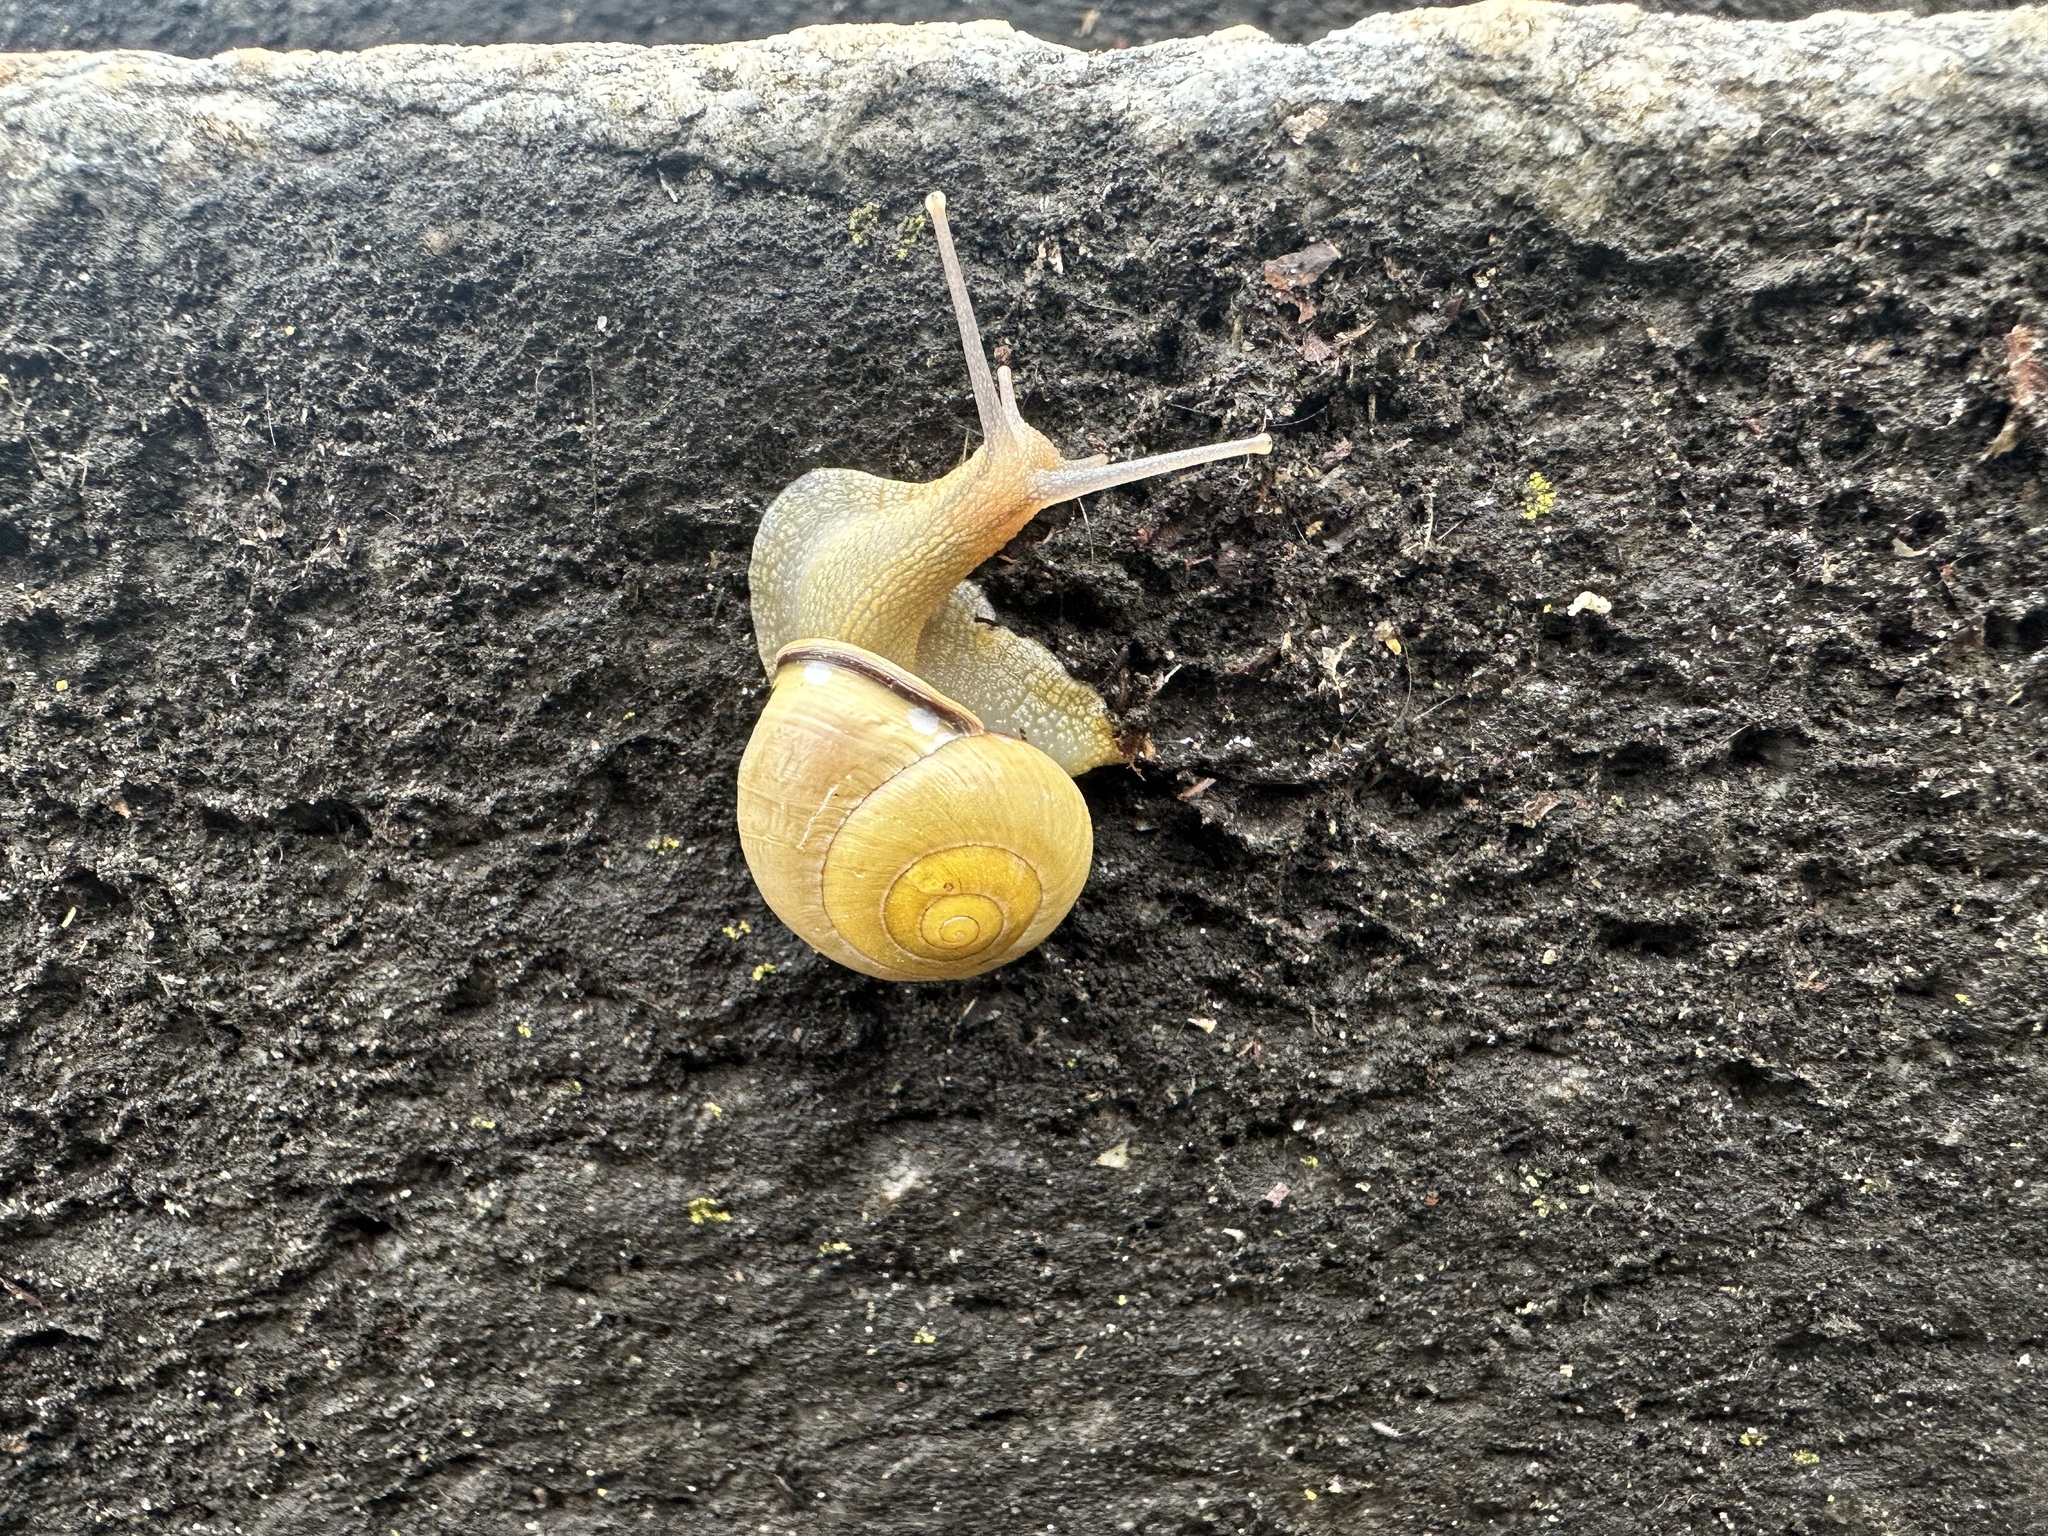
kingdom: Animalia
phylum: Mollusca
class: Gastropoda
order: Stylommatophora
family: Helicidae
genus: Cepaea
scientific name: Cepaea nemoralis
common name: Grovesnail
